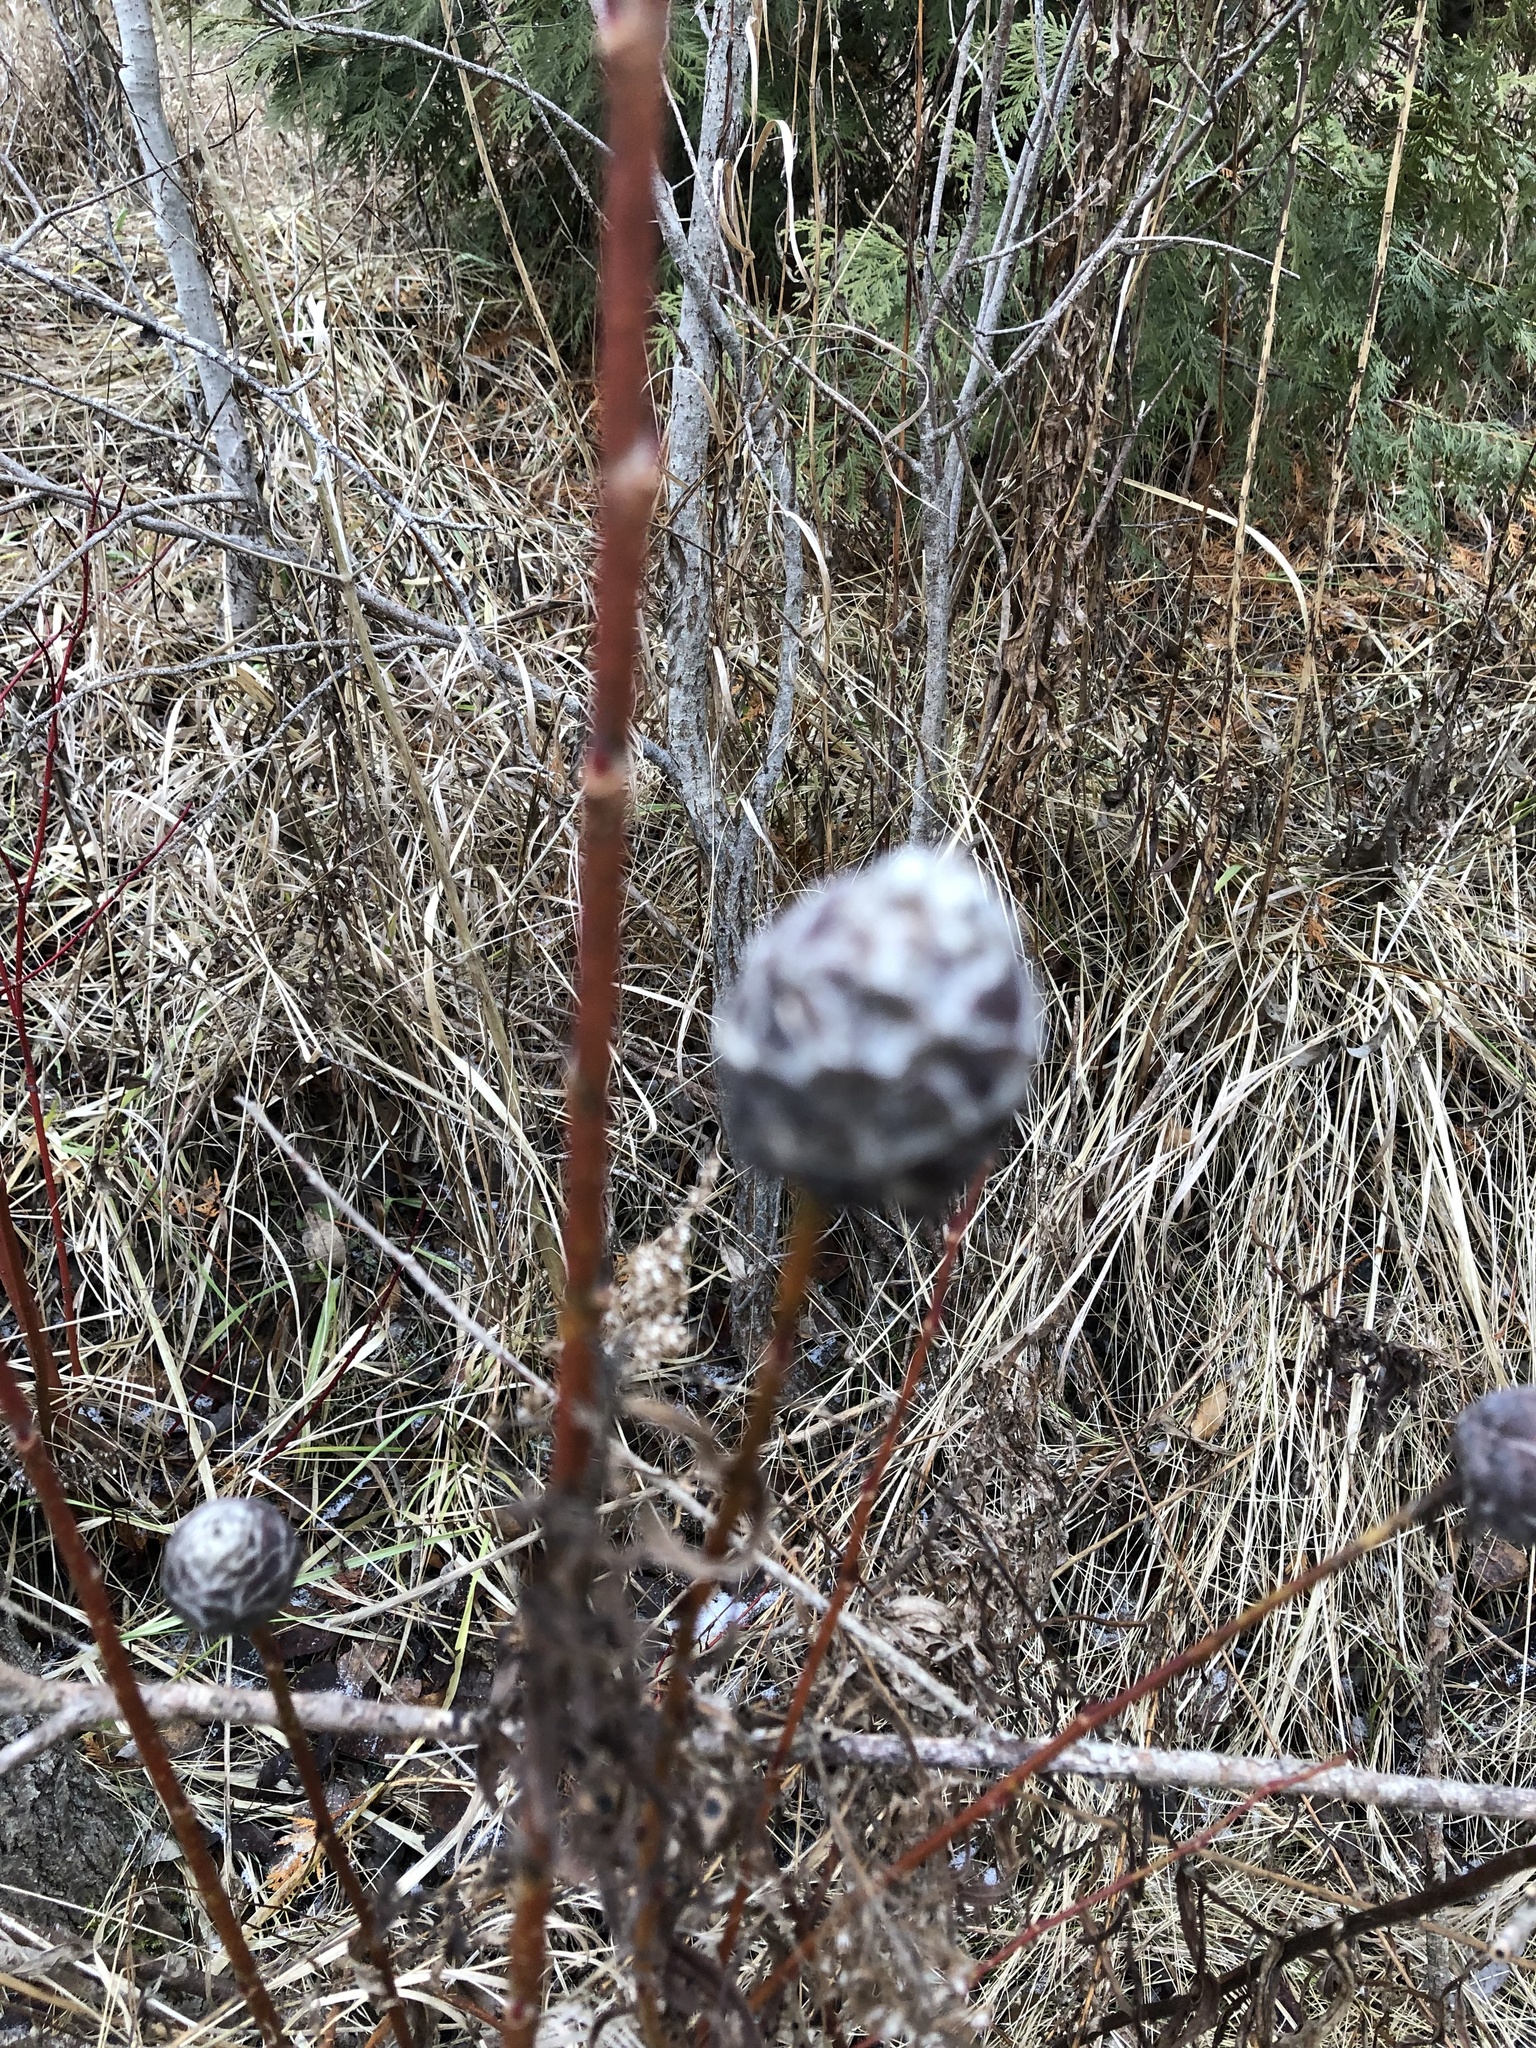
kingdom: Animalia
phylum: Arthropoda
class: Insecta
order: Diptera
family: Cecidomyiidae
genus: Rabdophaga
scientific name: Rabdophaga strobiloides
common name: Willow pinecone gall midge
